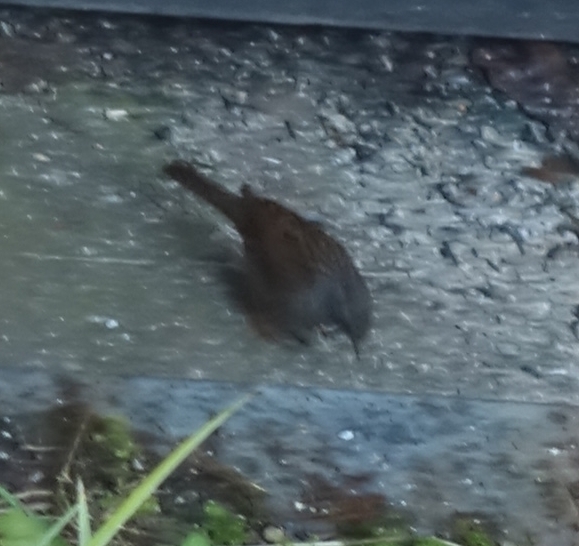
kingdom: Animalia
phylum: Chordata
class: Aves
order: Passeriformes
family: Prunellidae
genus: Prunella
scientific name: Prunella modularis
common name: Dunnock
